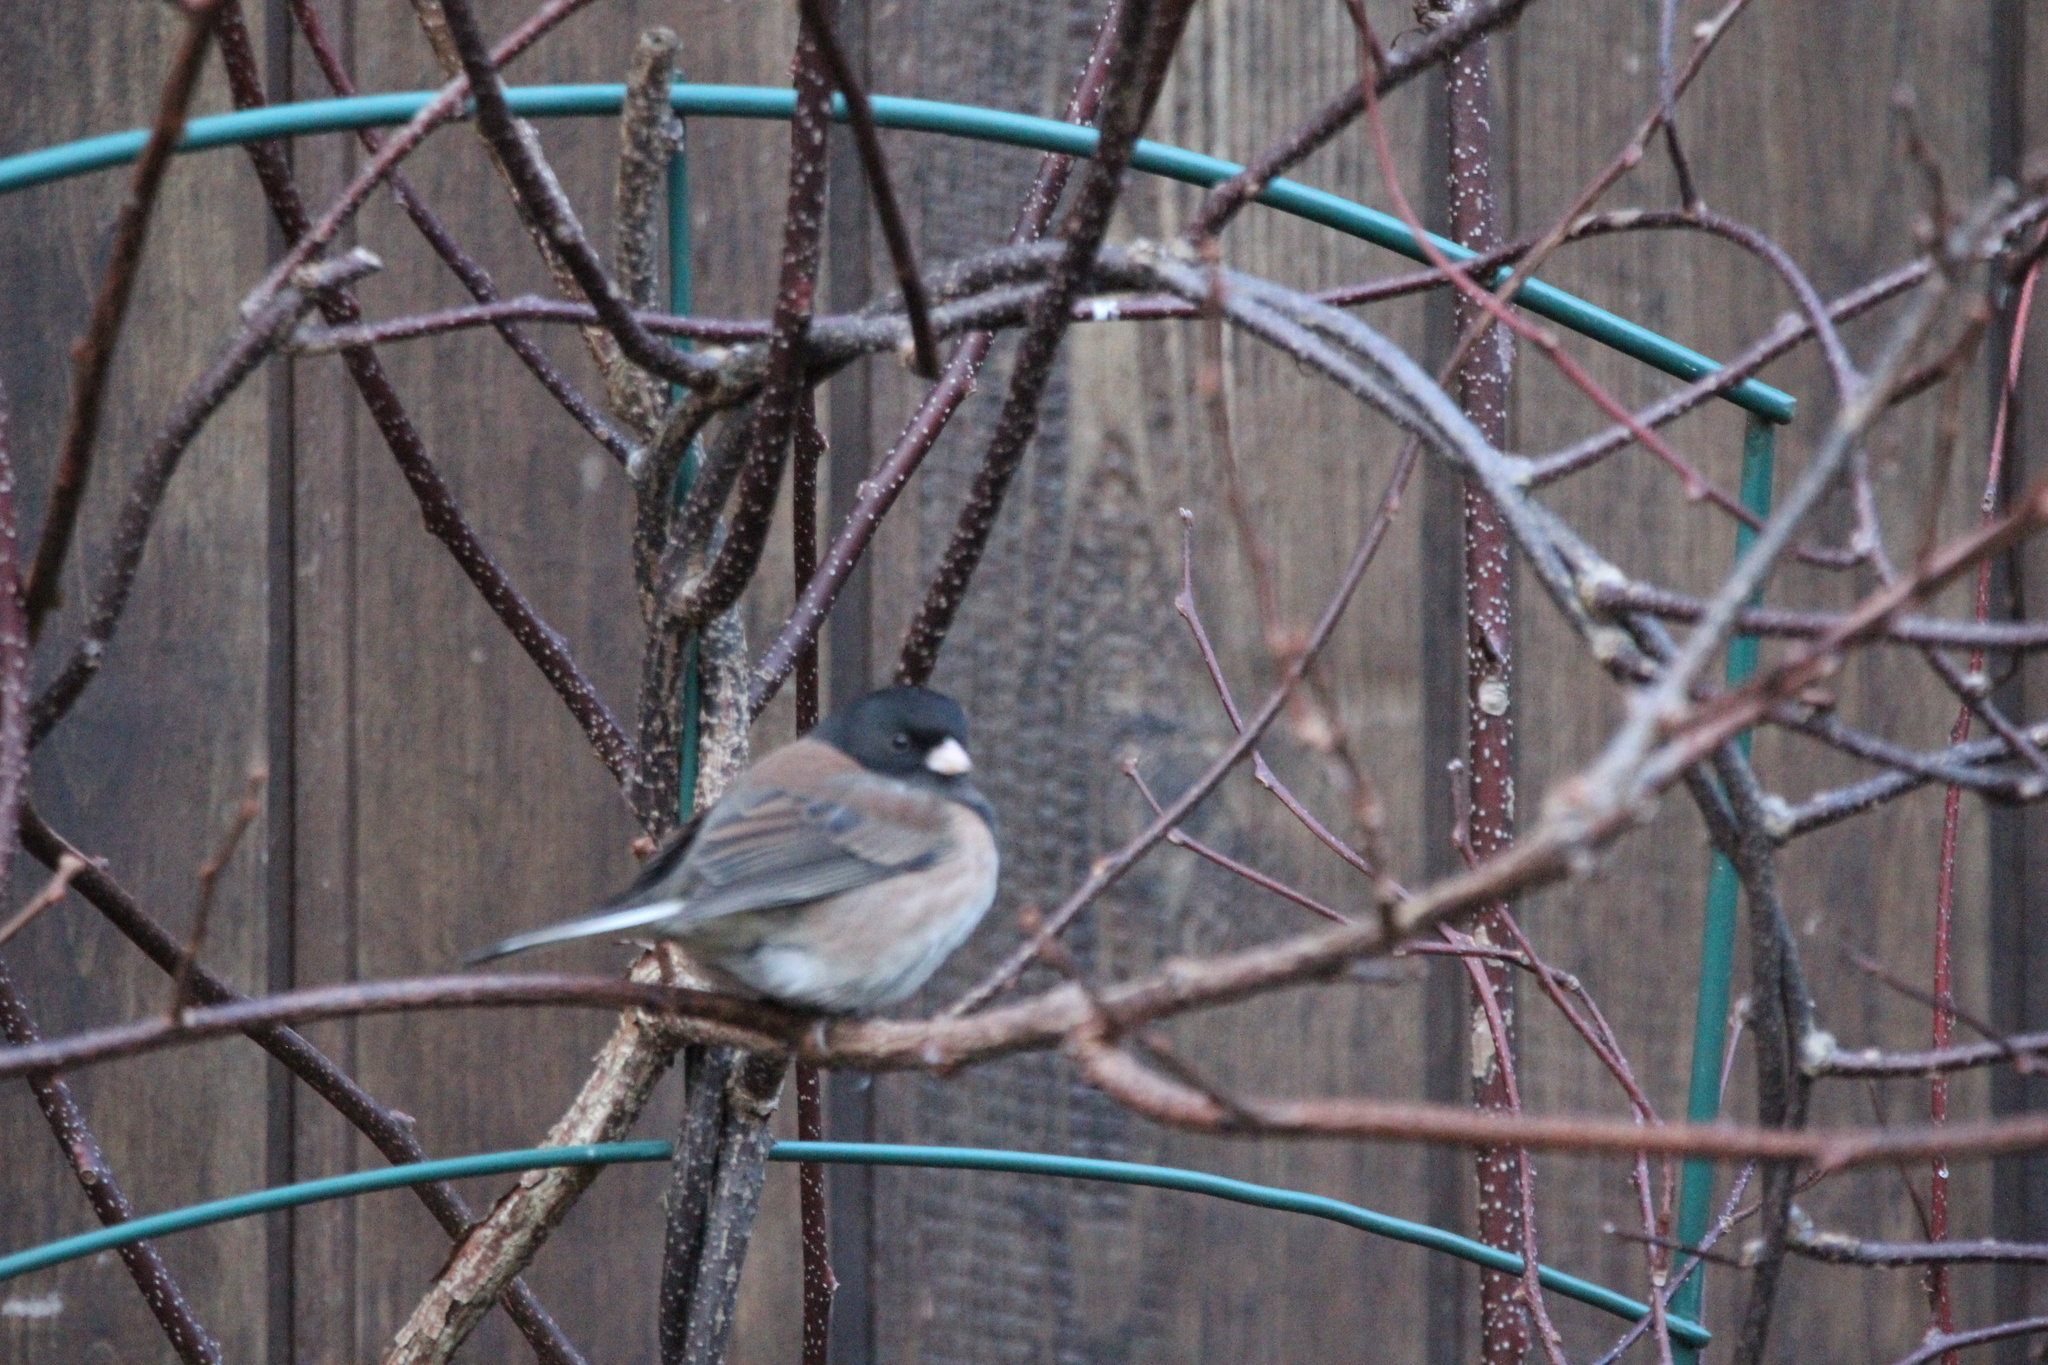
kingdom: Animalia
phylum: Chordata
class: Aves
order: Passeriformes
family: Passerellidae
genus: Junco
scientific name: Junco hyemalis
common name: Dark-eyed junco
